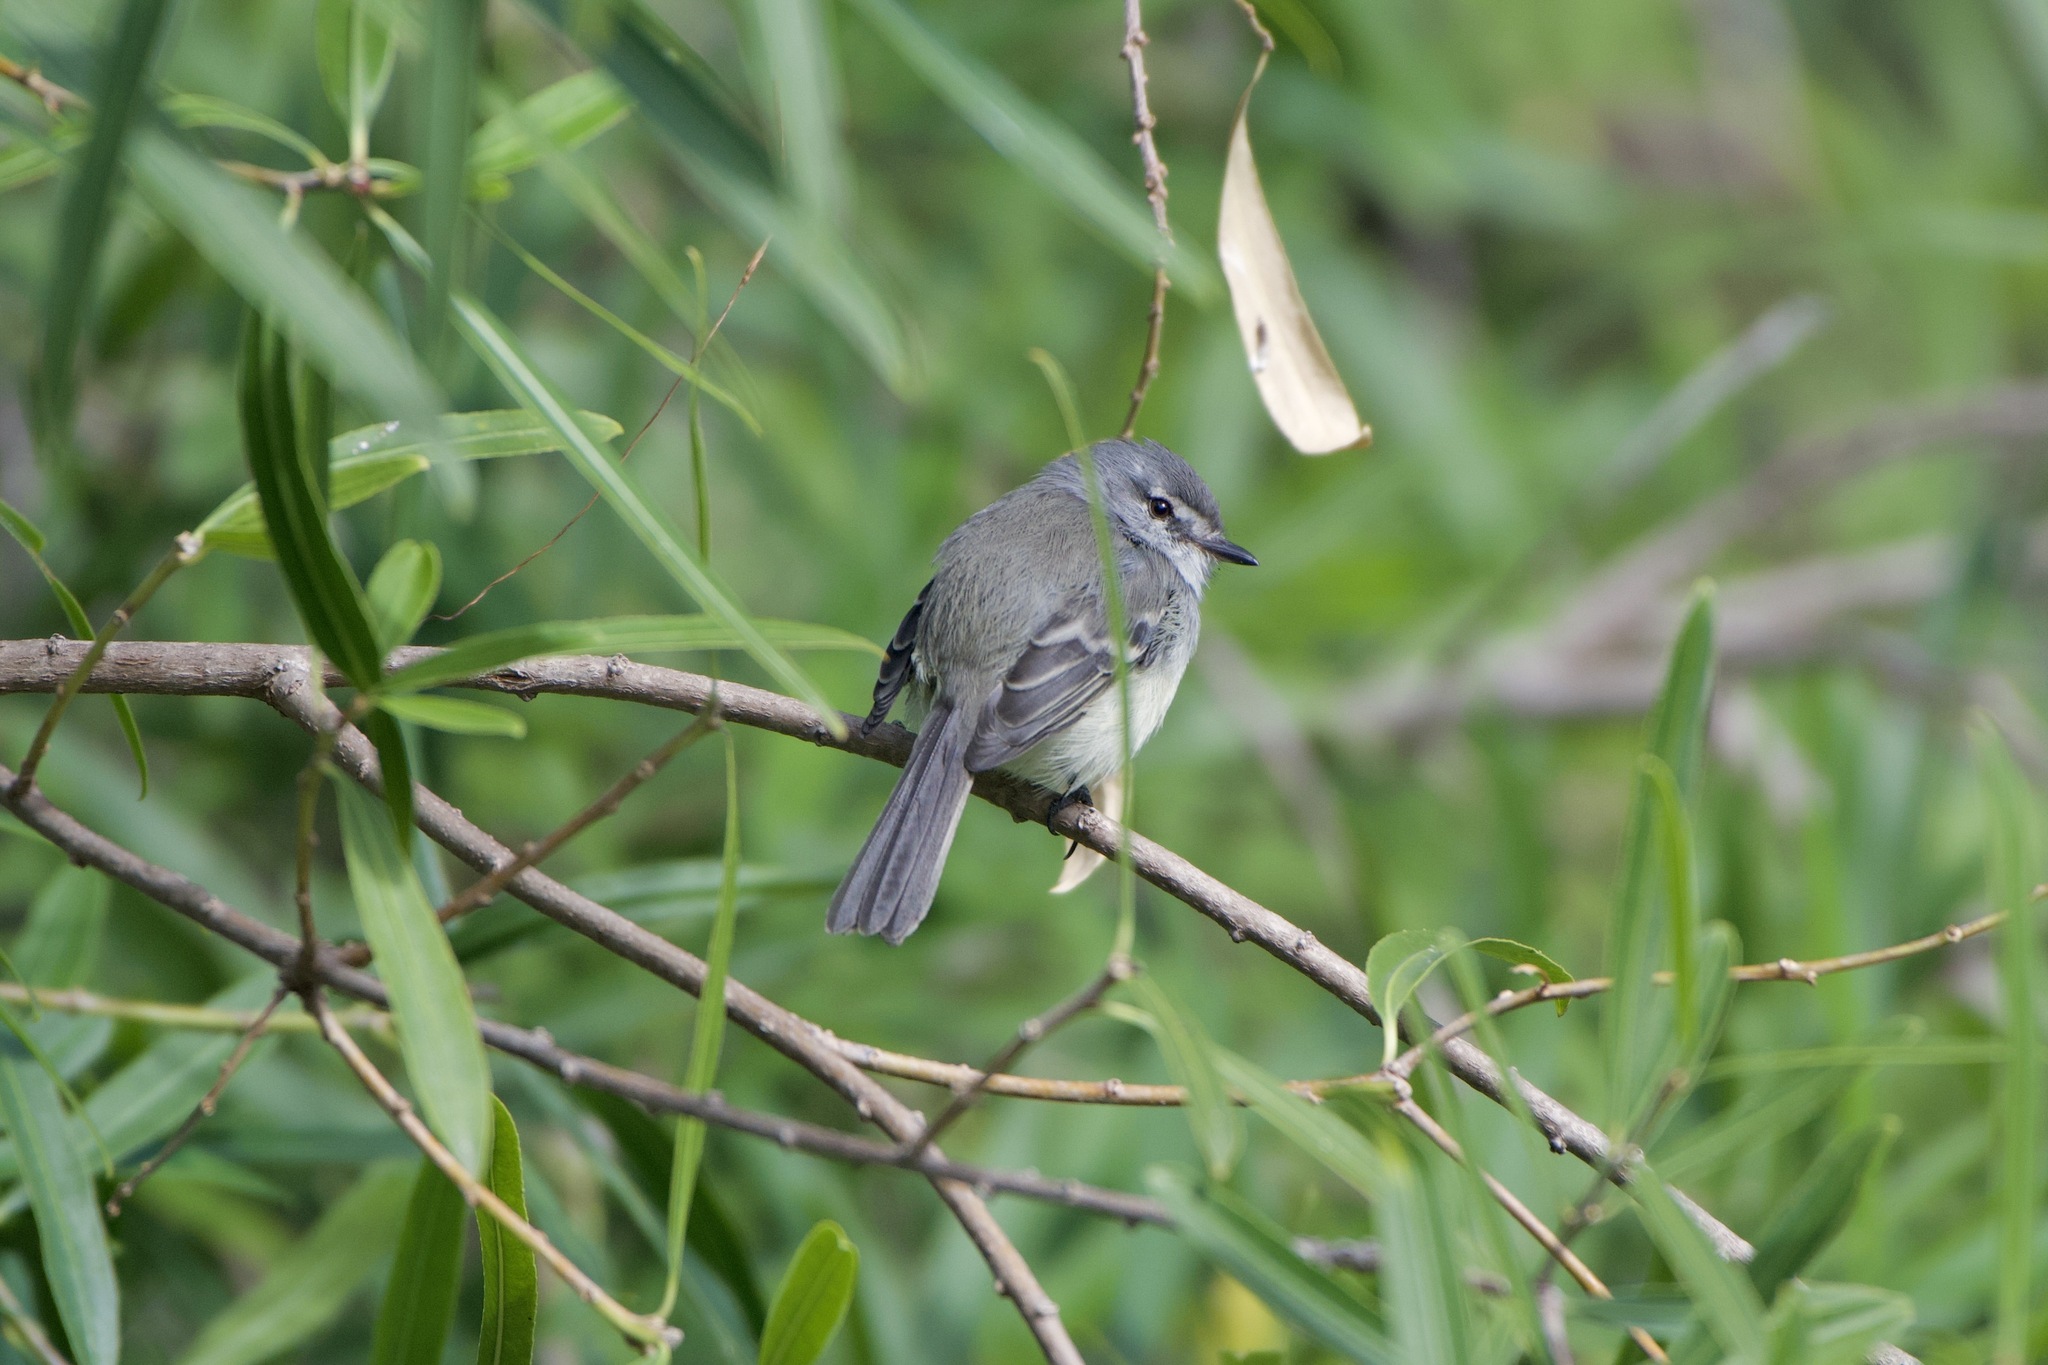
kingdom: Animalia
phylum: Chordata
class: Aves
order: Passeriformes
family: Tyrannidae
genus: Serpophaga
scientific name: Serpophaga
